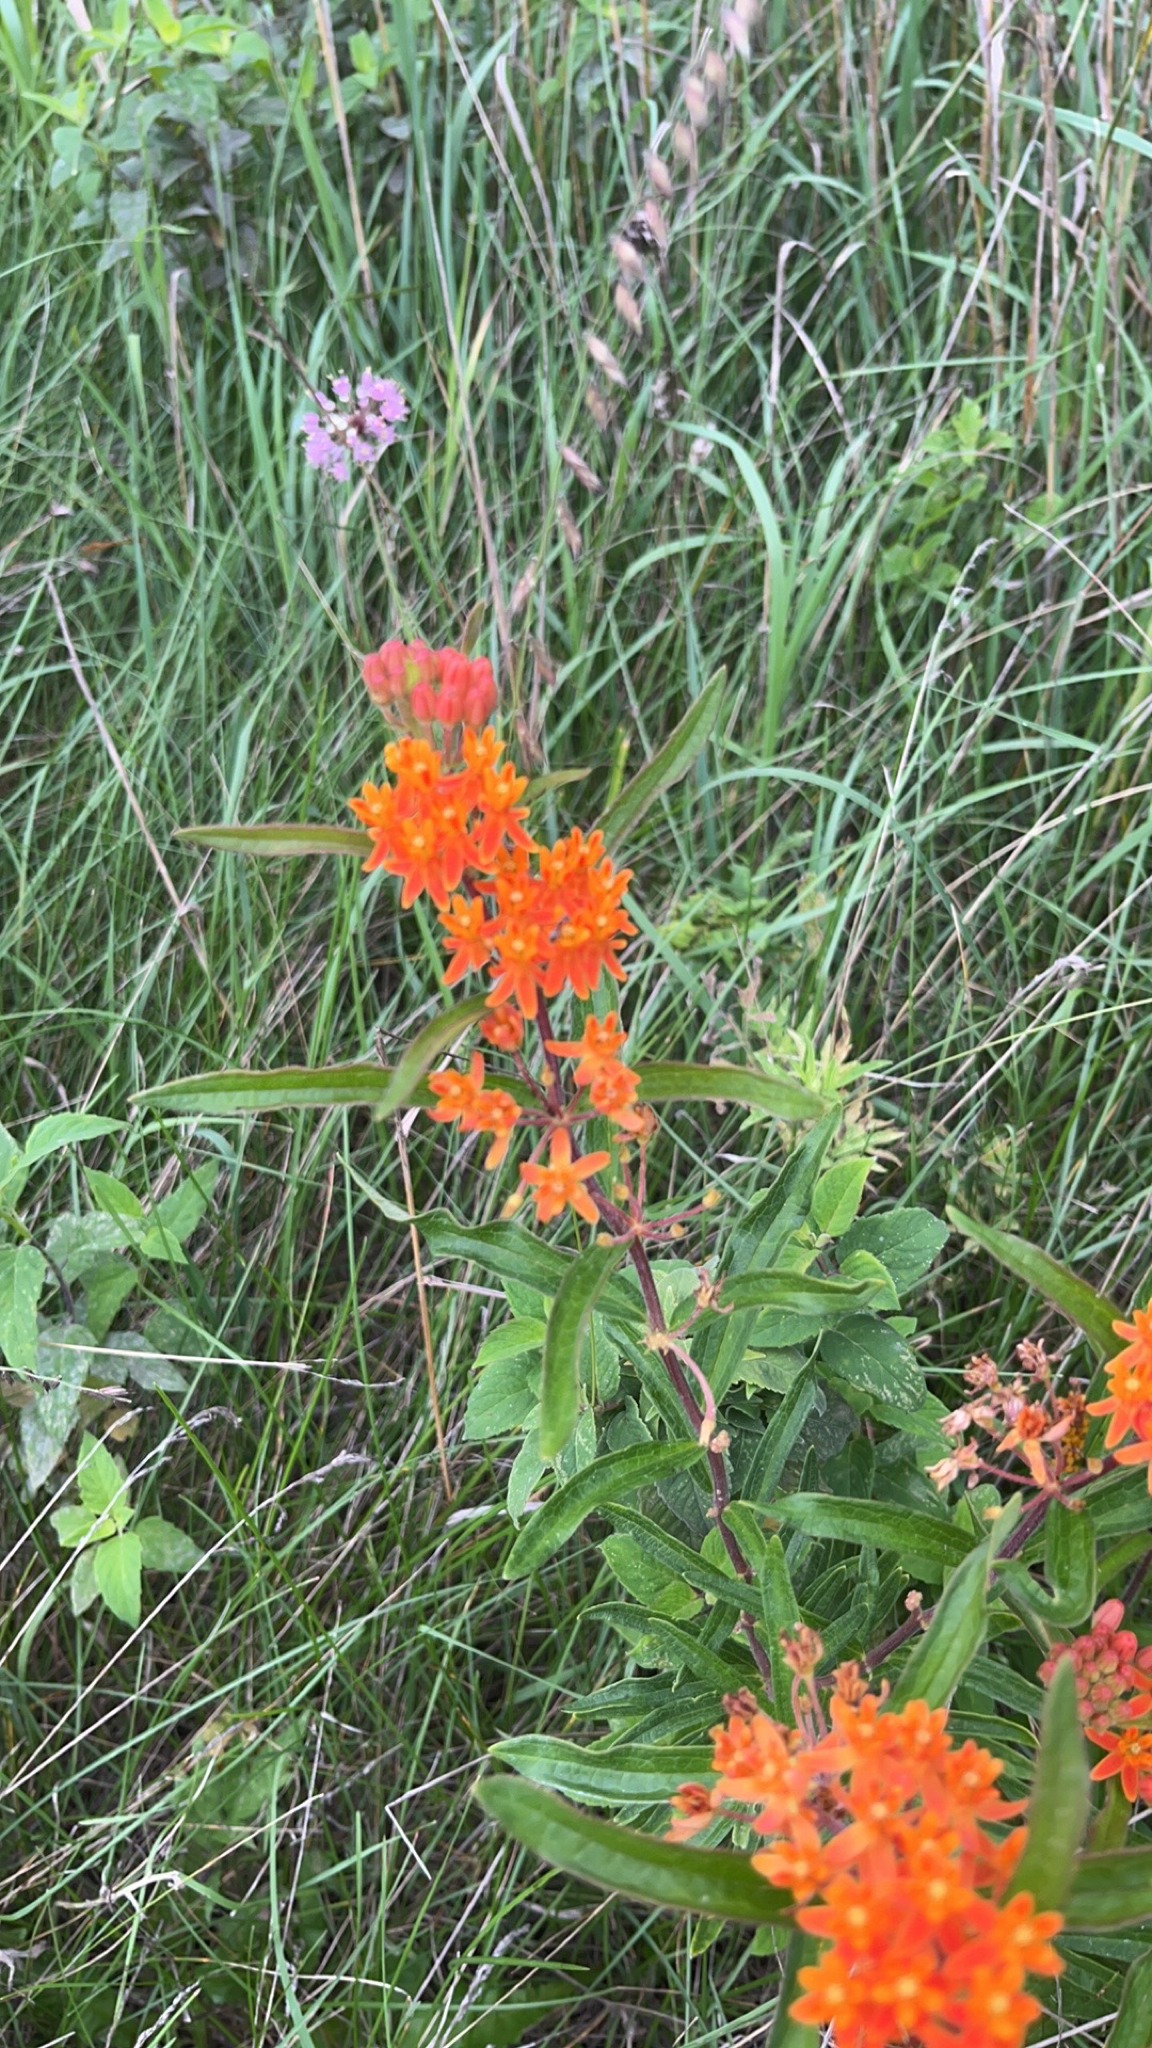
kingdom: Plantae
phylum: Tracheophyta
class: Magnoliopsida
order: Gentianales
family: Apocynaceae
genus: Asclepias
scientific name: Asclepias tuberosa
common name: Butterfly milkweed
